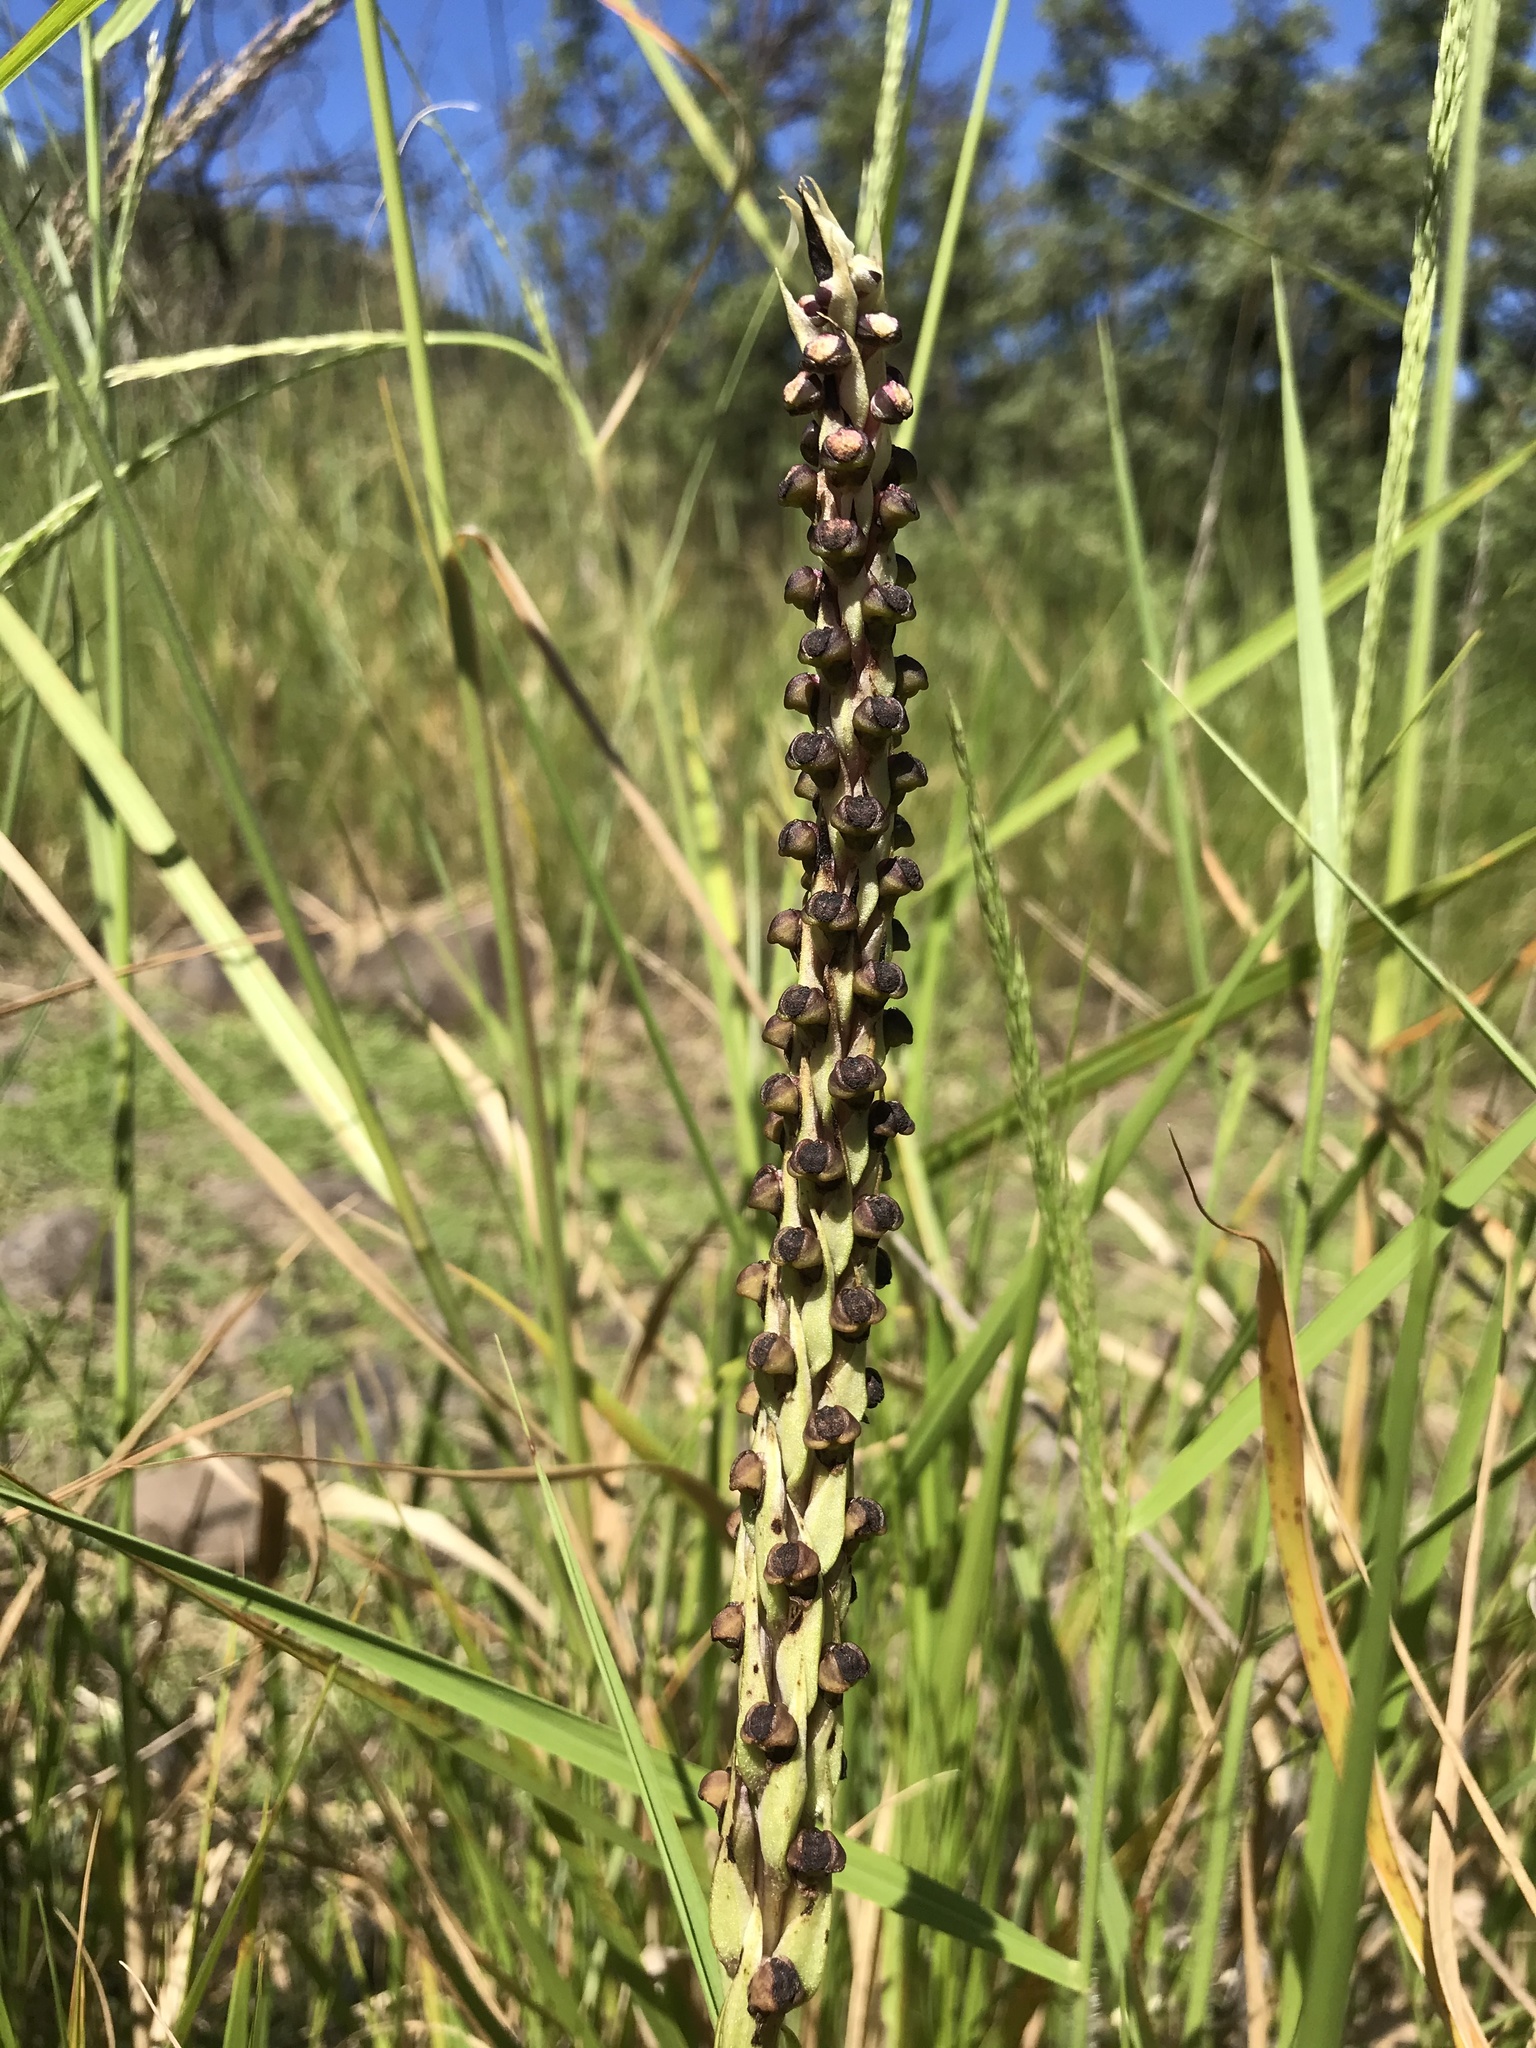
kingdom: Plantae
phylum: Tracheophyta
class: Liliopsida
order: Asparagales
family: Orchidaceae
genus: Corycium
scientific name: Corycium dracomontanum
